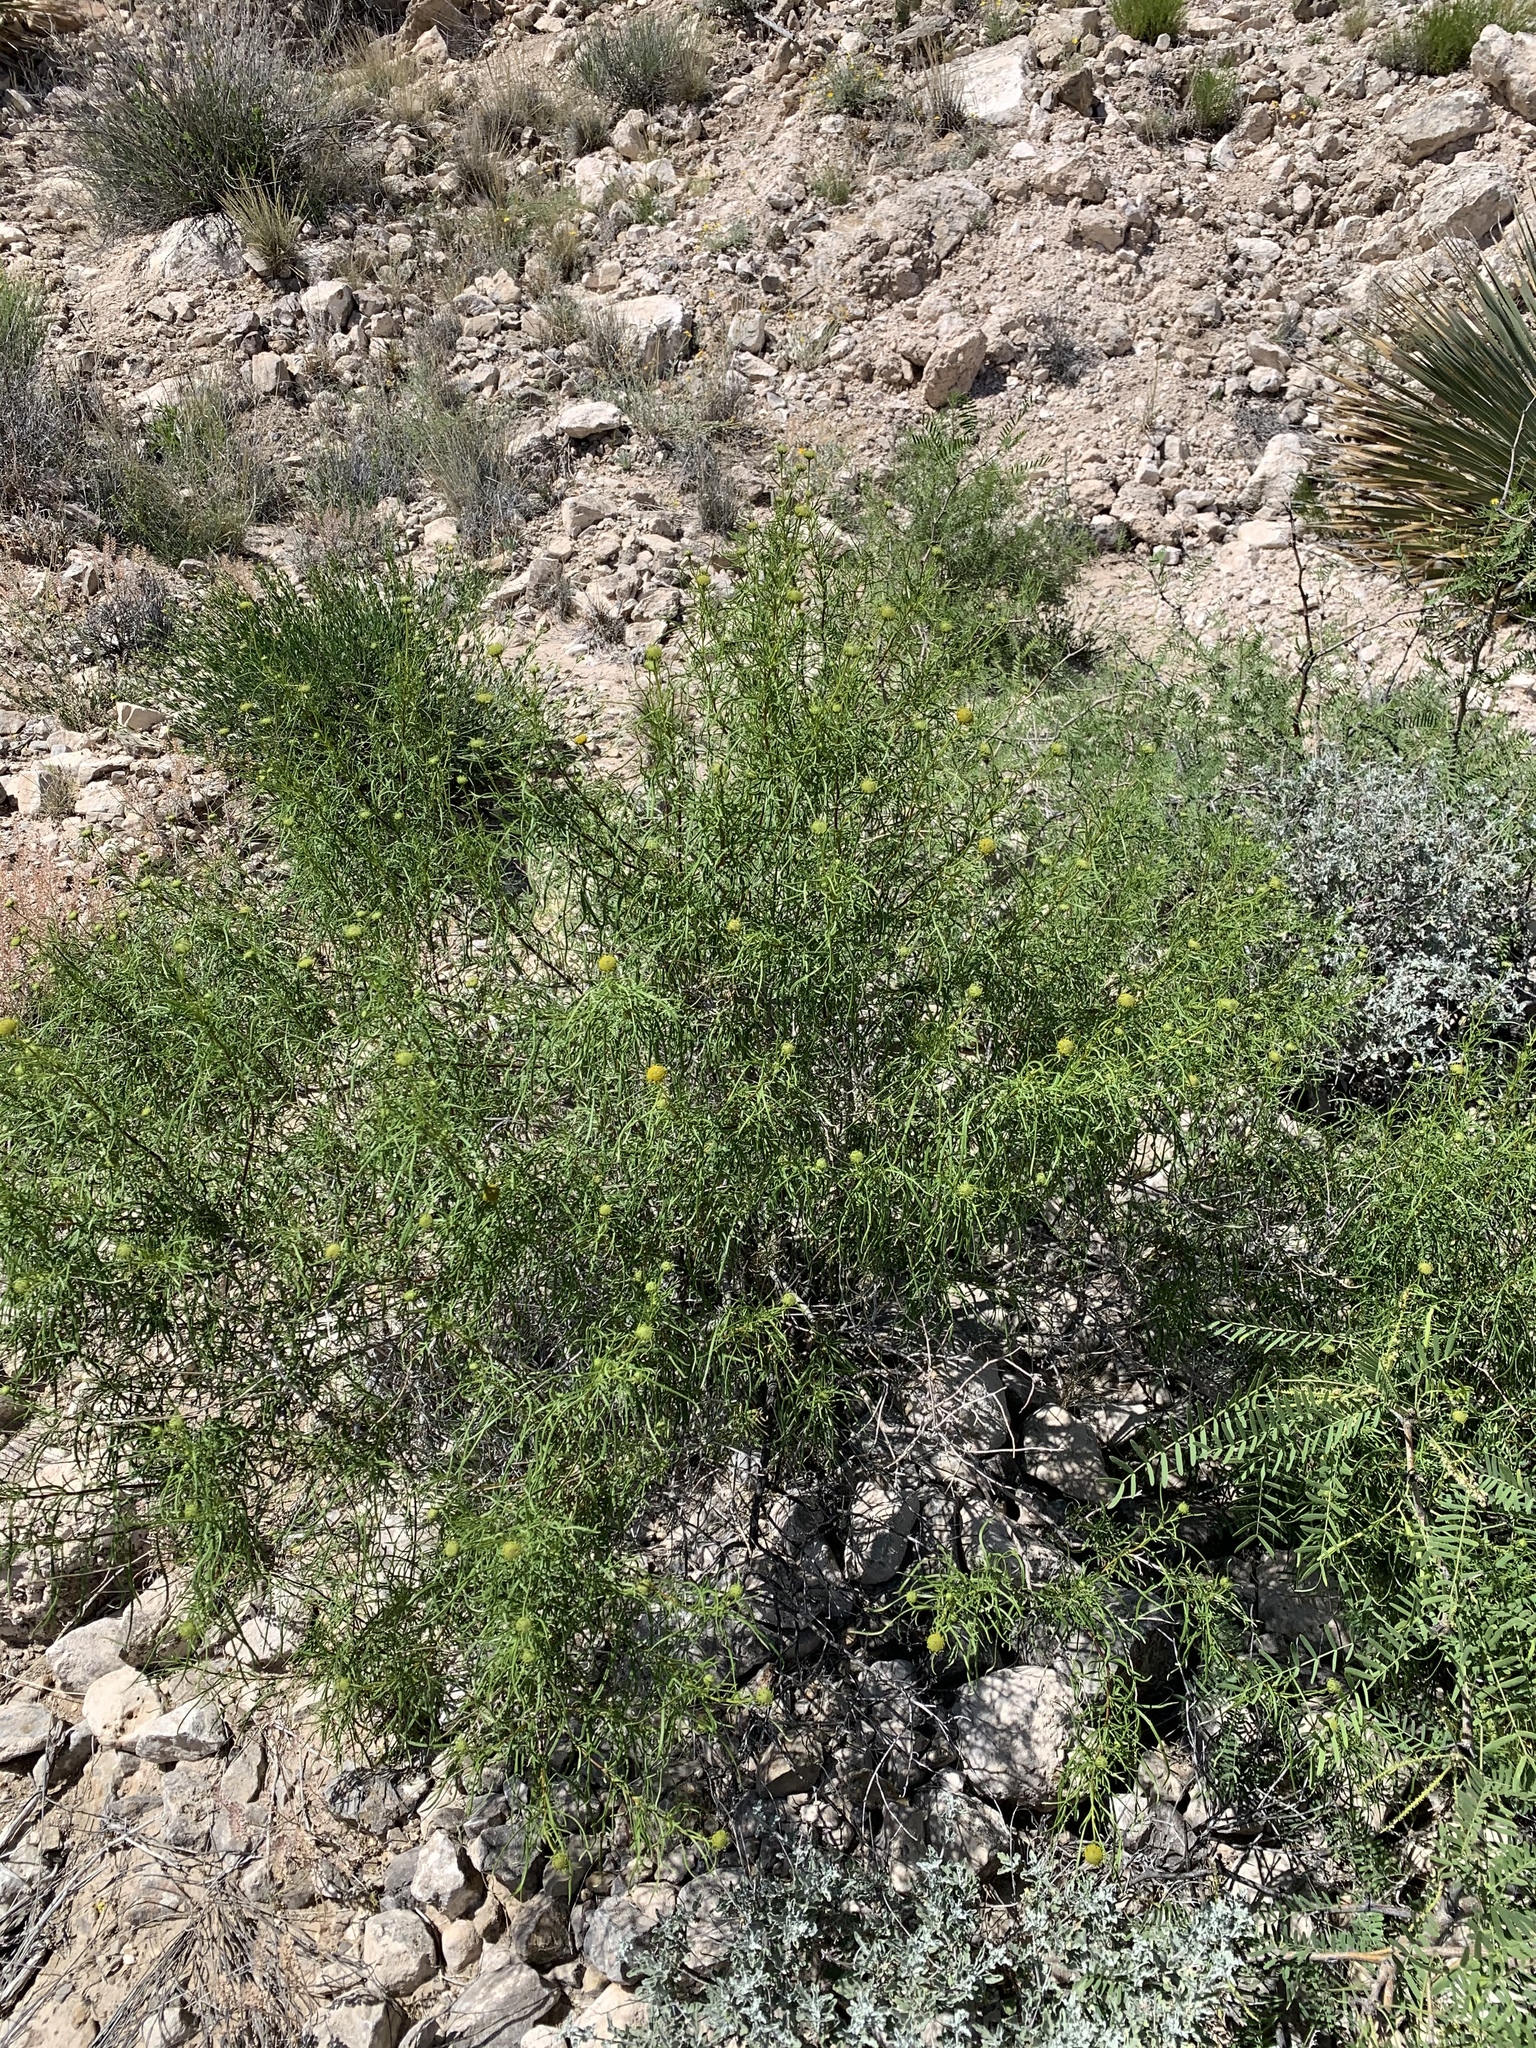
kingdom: Plantae
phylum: Tracheophyta
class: Magnoliopsida
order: Asterales
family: Asteraceae
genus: Sidneya
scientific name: Sidneya tenuifolia
